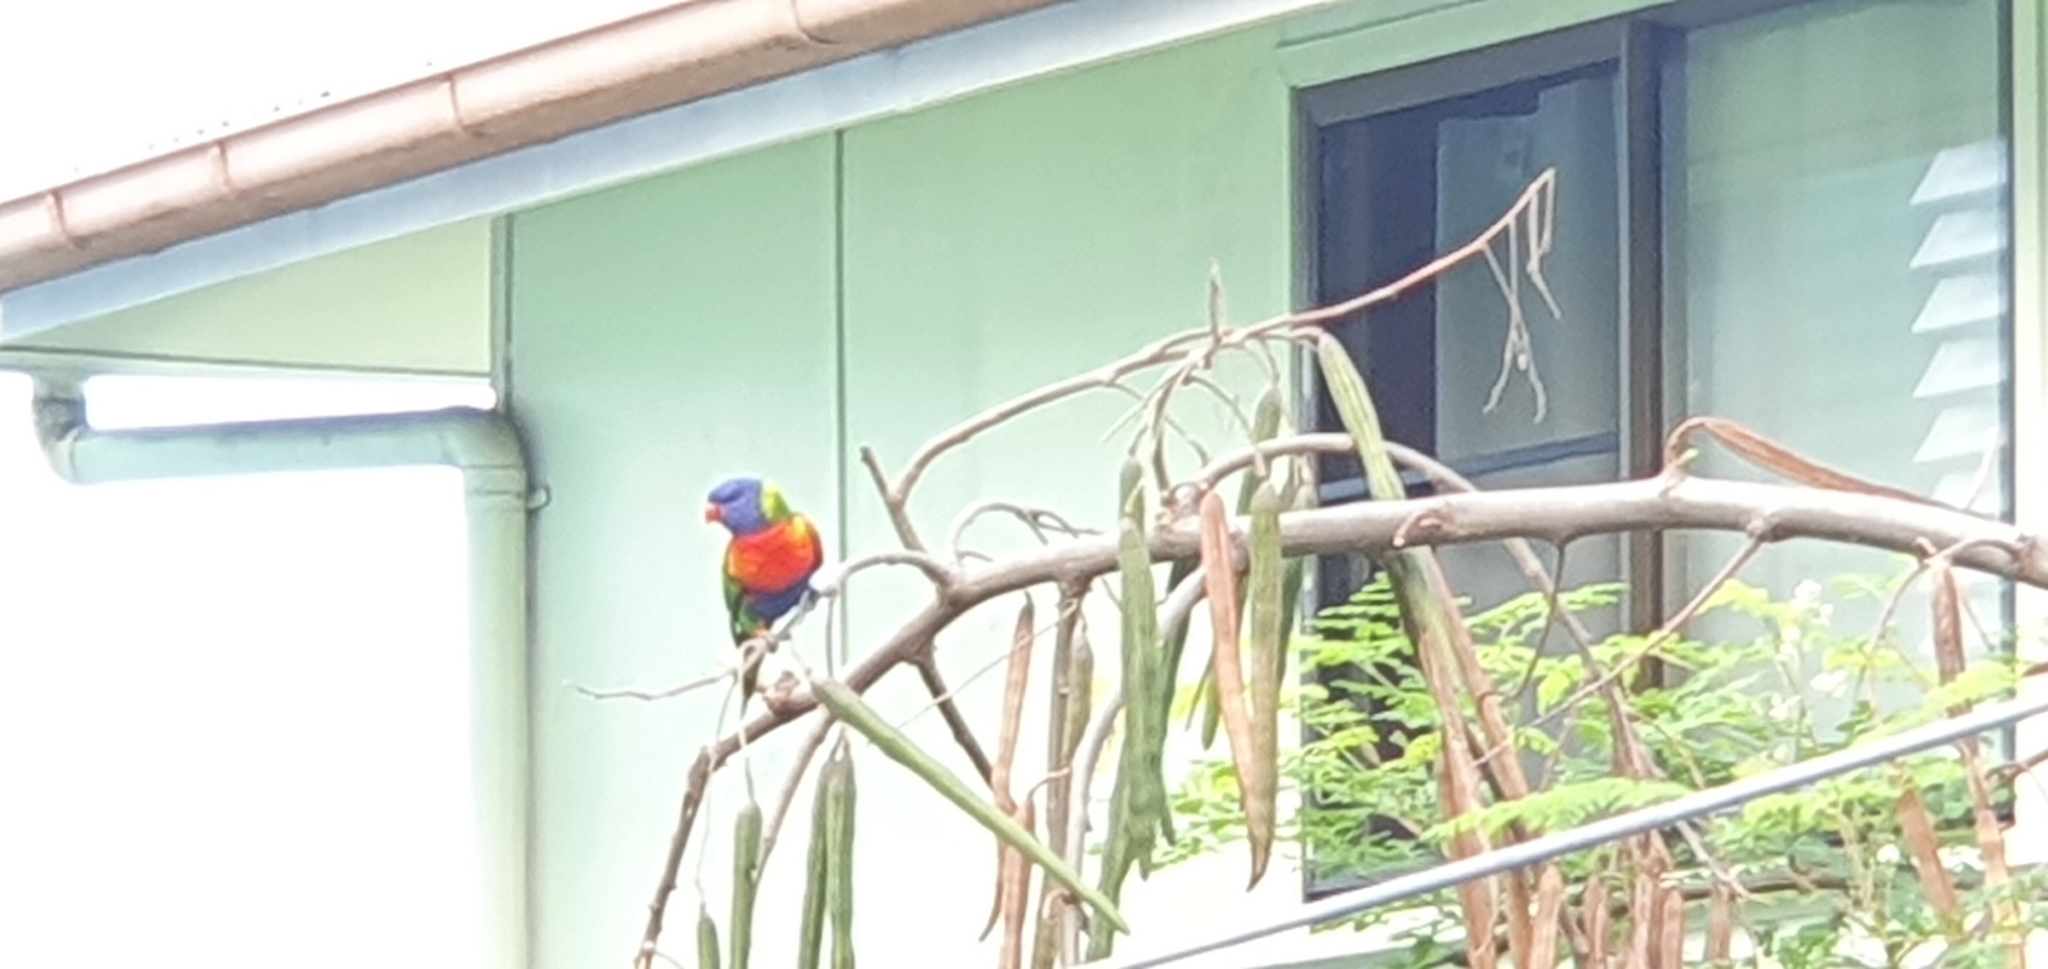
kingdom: Animalia
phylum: Chordata
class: Aves
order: Psittaciformes
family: Psittacidae
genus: Trichoglossus
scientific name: Trichoglossus haematodus
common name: Coconut lorikeet
